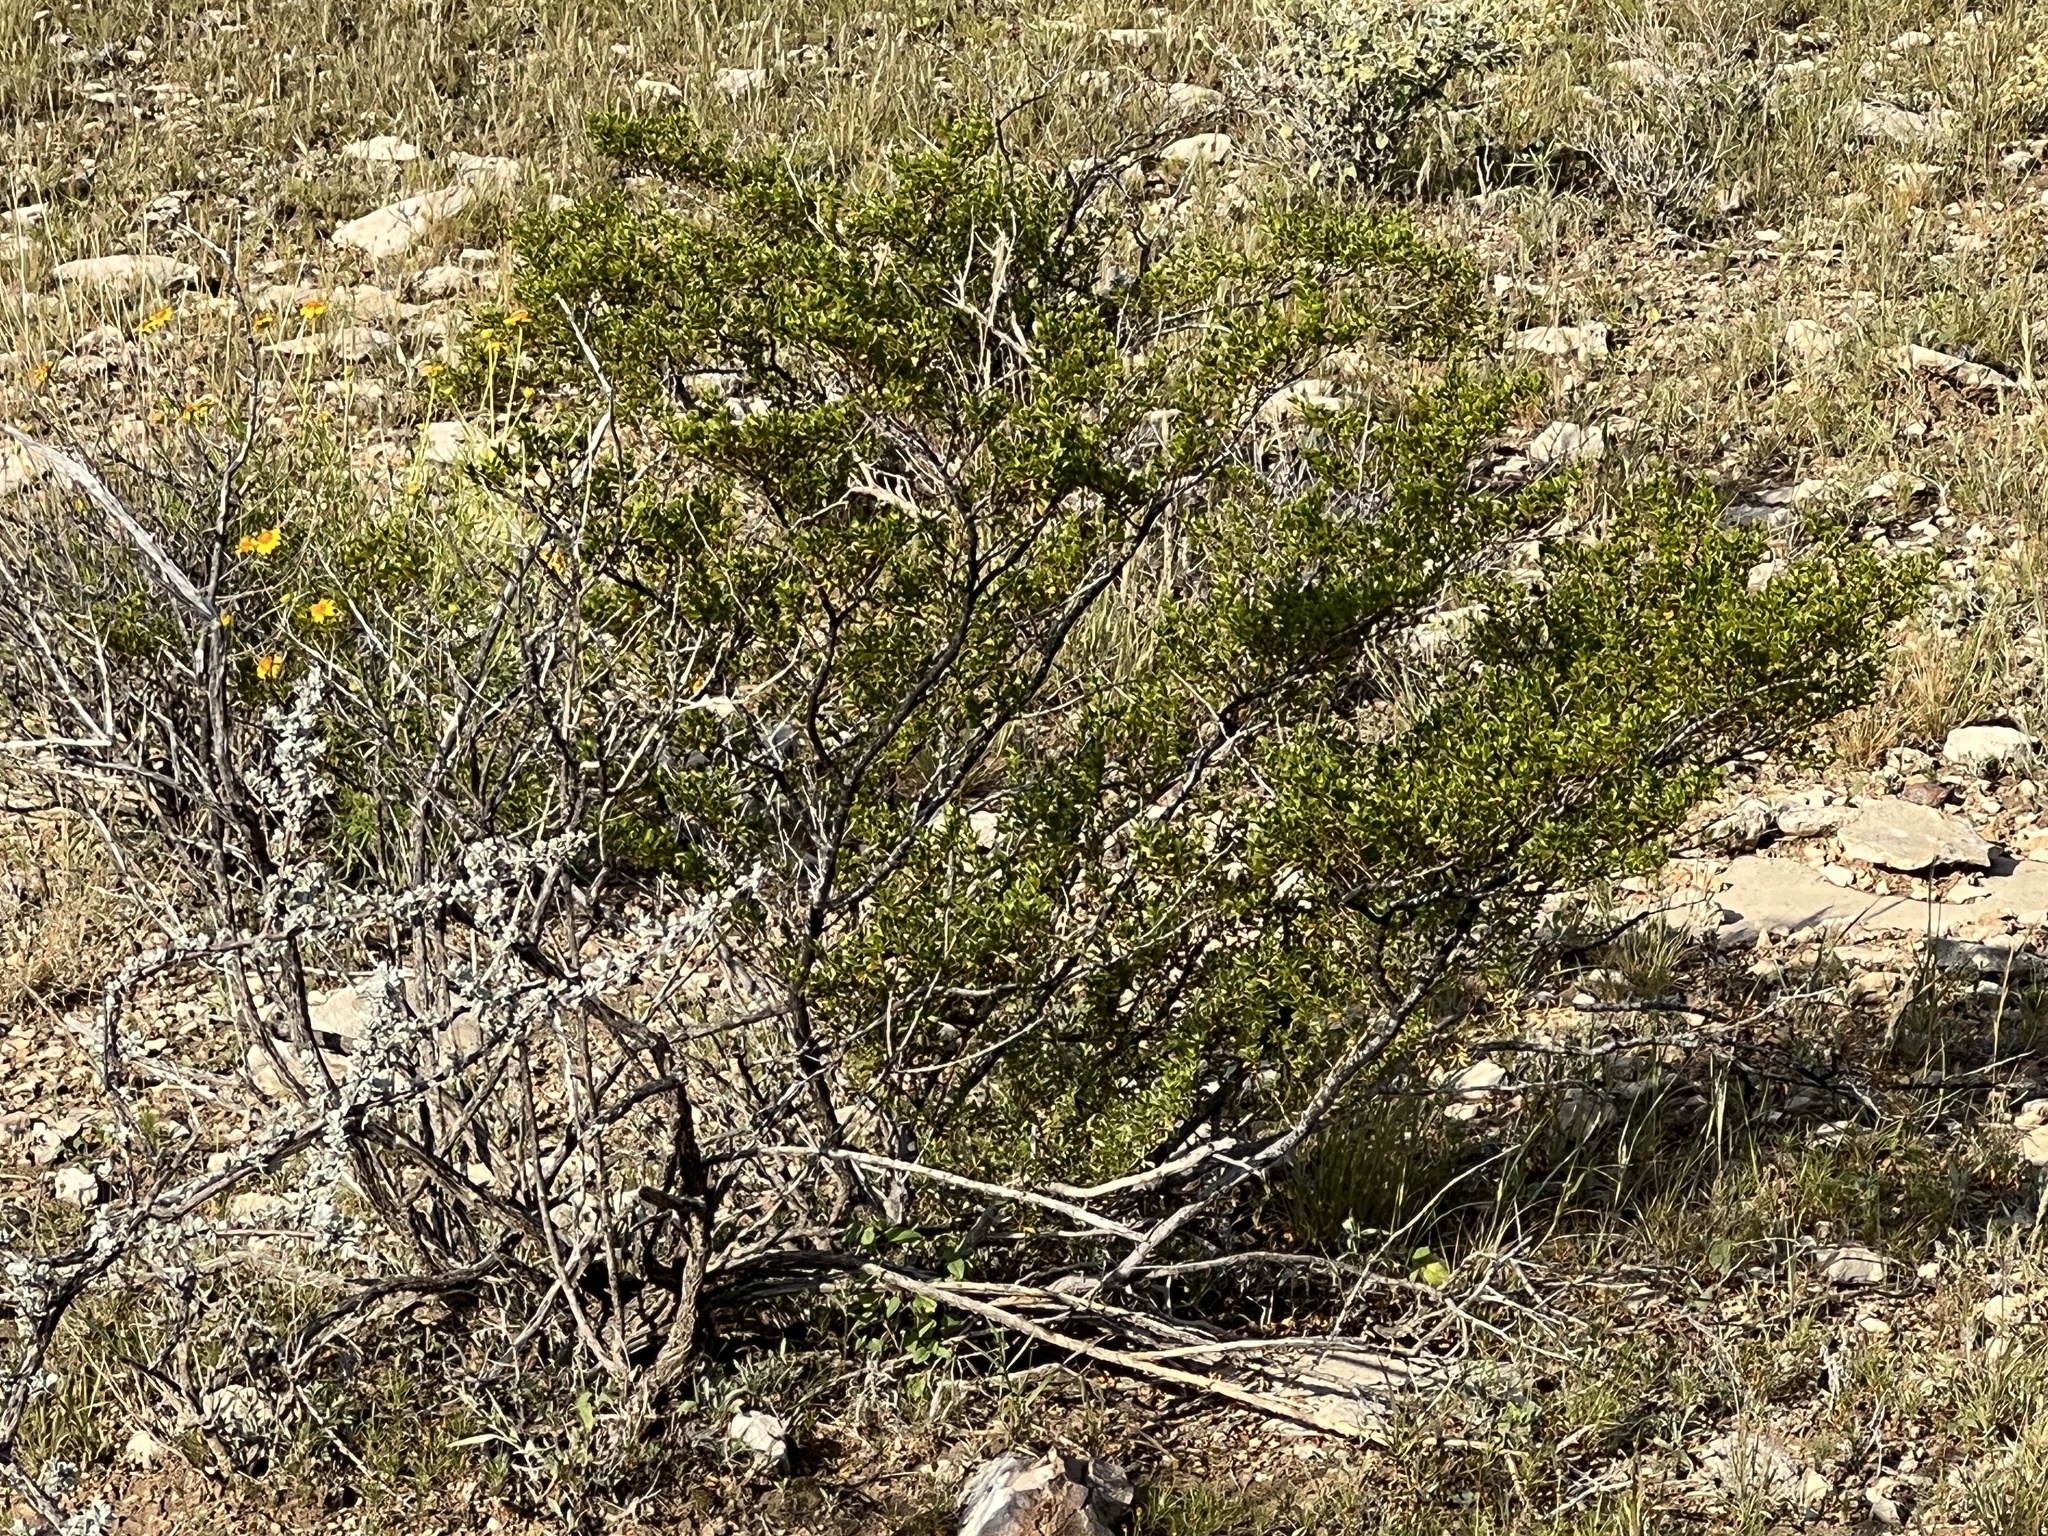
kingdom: Plantae
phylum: Tracheophyta
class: Magnoliopsida
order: Zygophyllales
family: Zygophyllaceae
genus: Larrea
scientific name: Larrea tridentata
